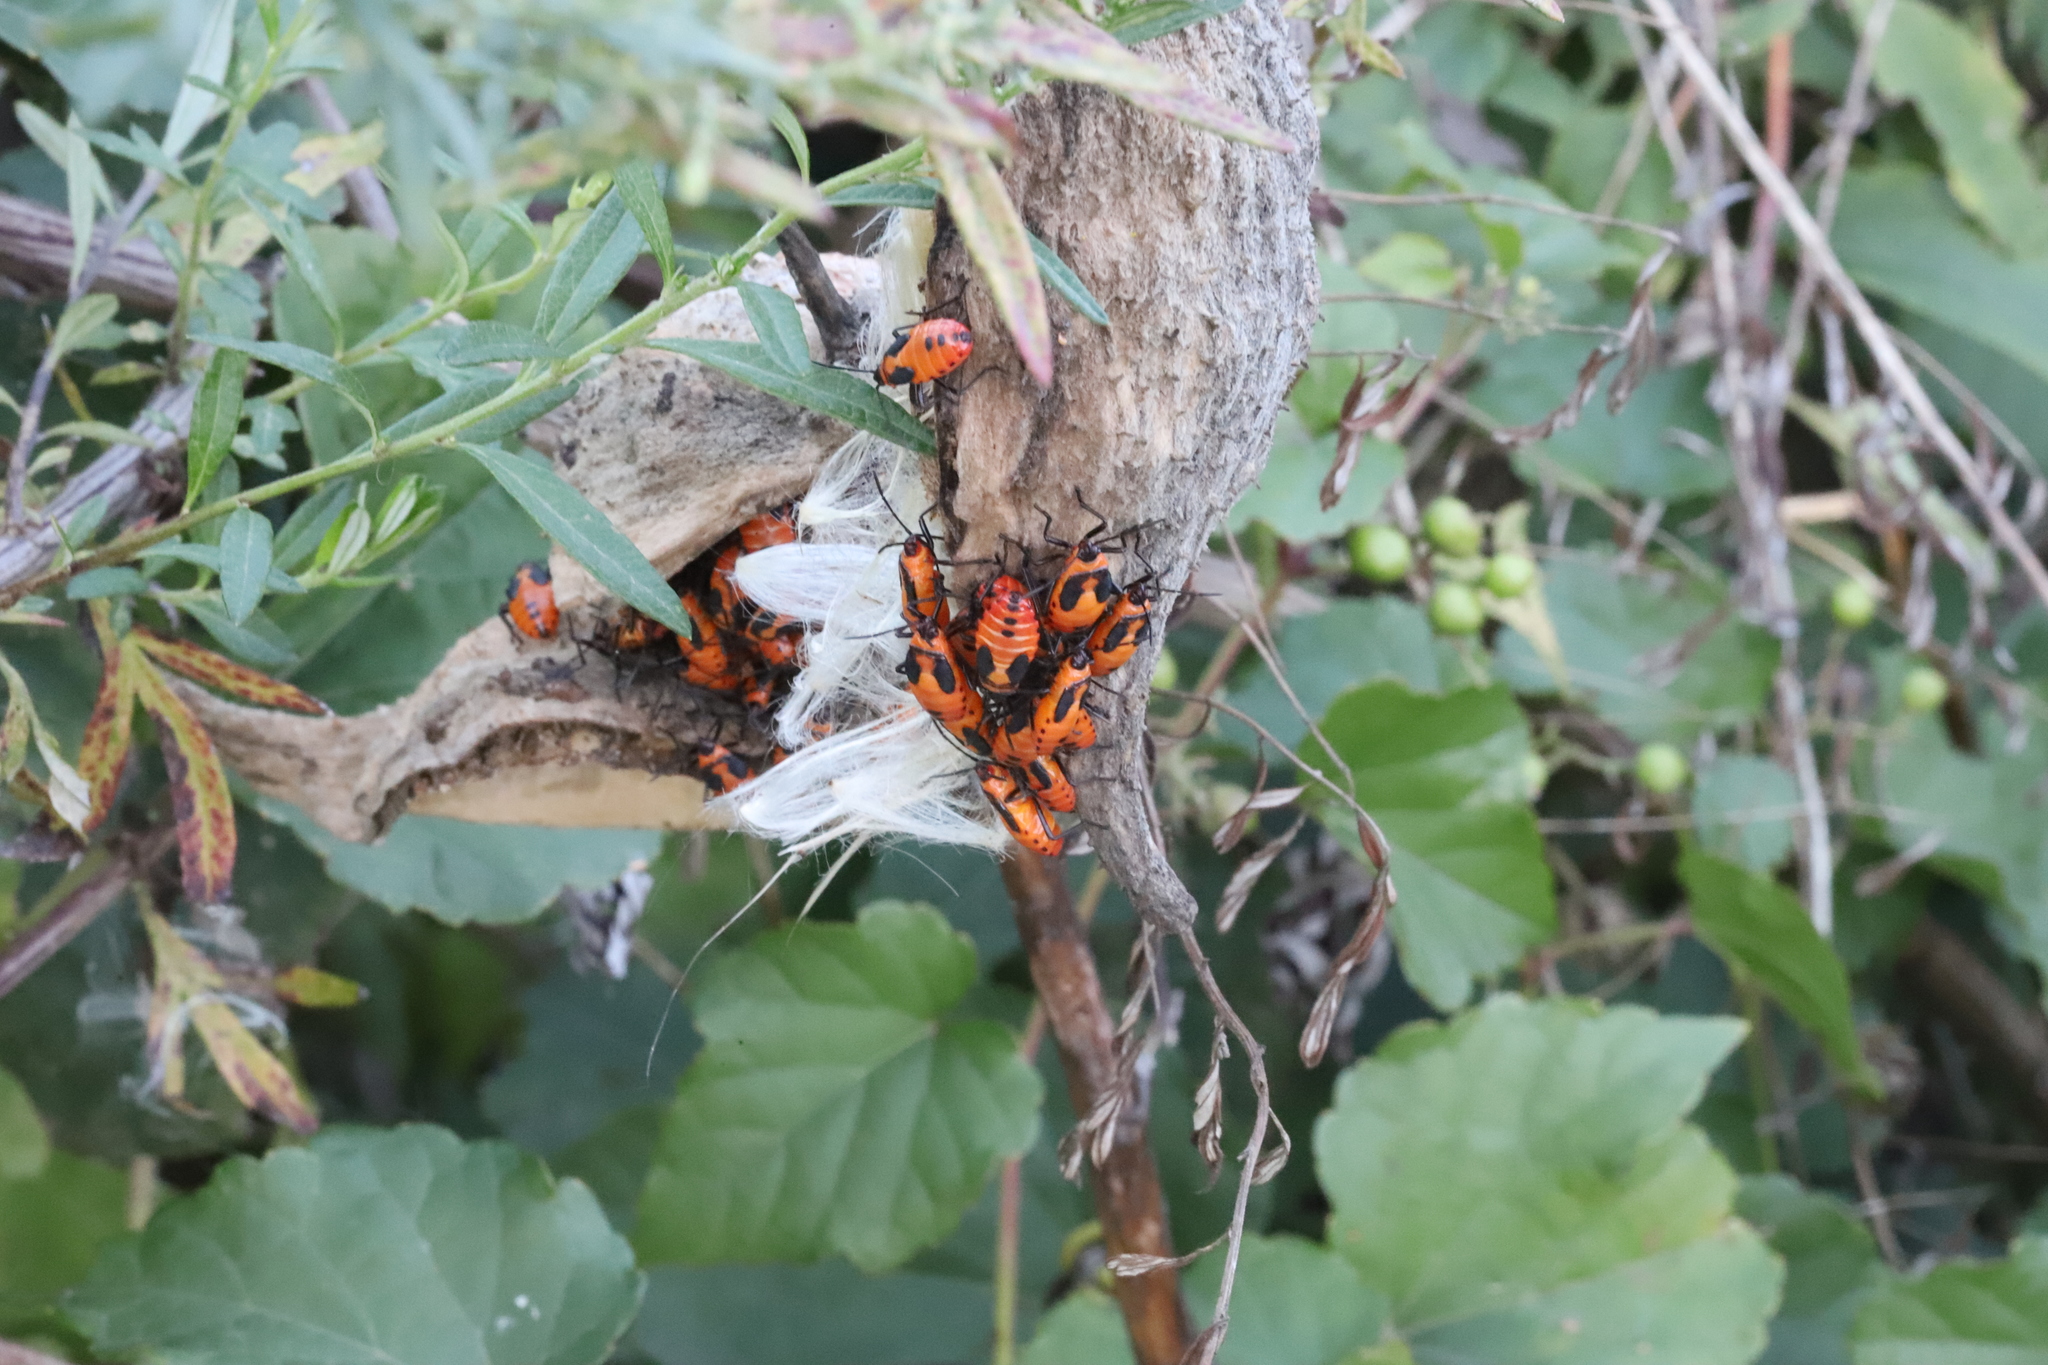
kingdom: Animalia
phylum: Arthropoda
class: Insecta
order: Hemiptera
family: Lygaeidae
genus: Oncopeltus
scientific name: Oncopeltus fasciatus
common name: Large milkweed bug
